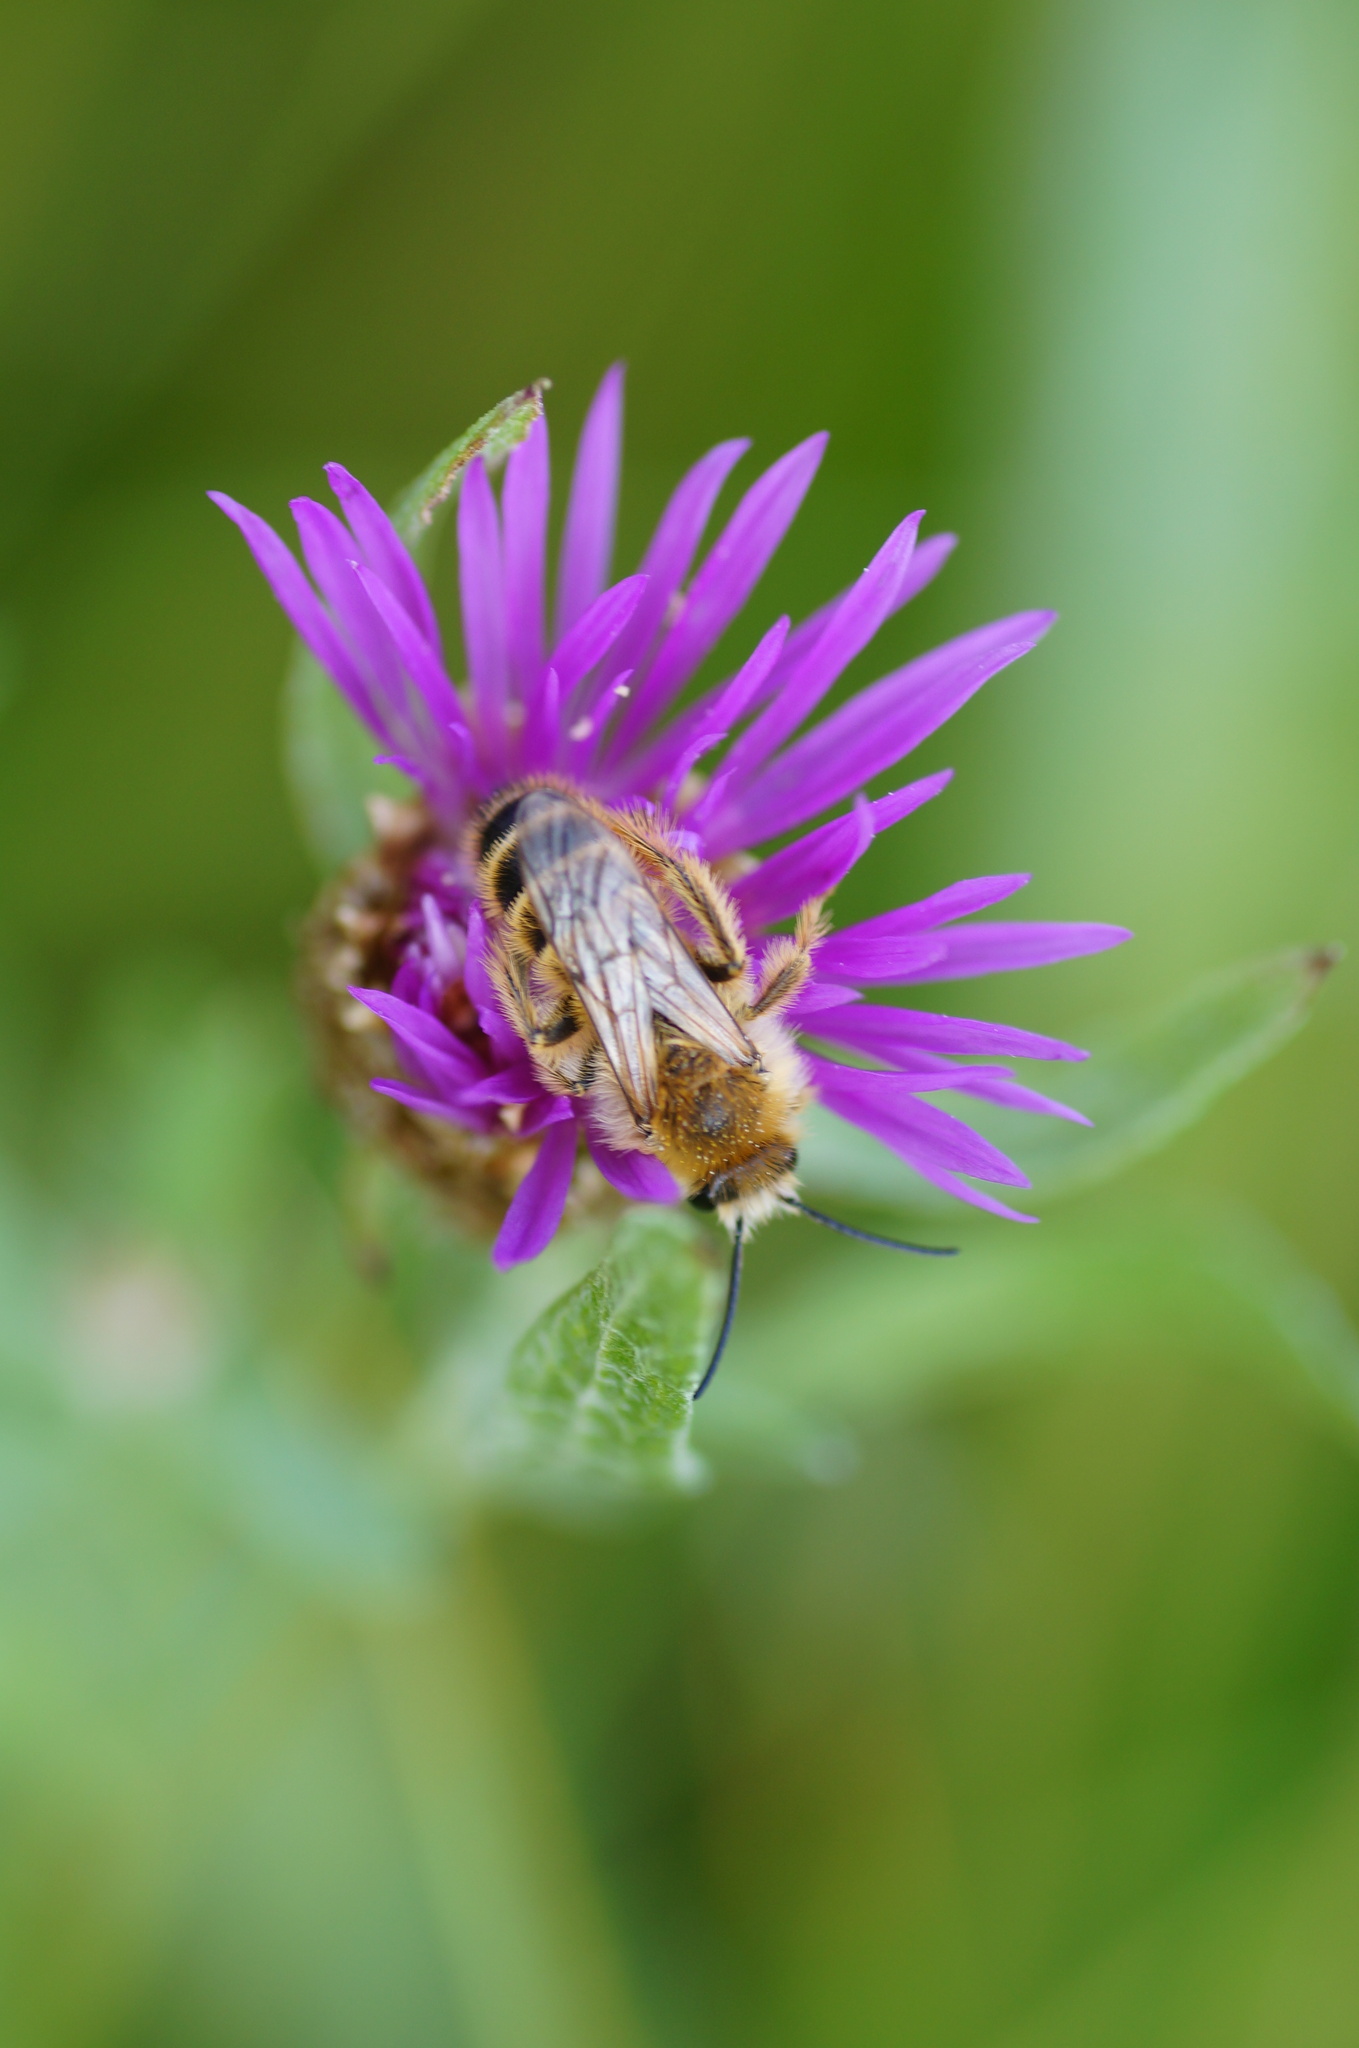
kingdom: Animalia
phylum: Arthropoda
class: Insecta
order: Hymenoptera
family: Melittidae
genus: Dasypoda
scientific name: Dasypoda
